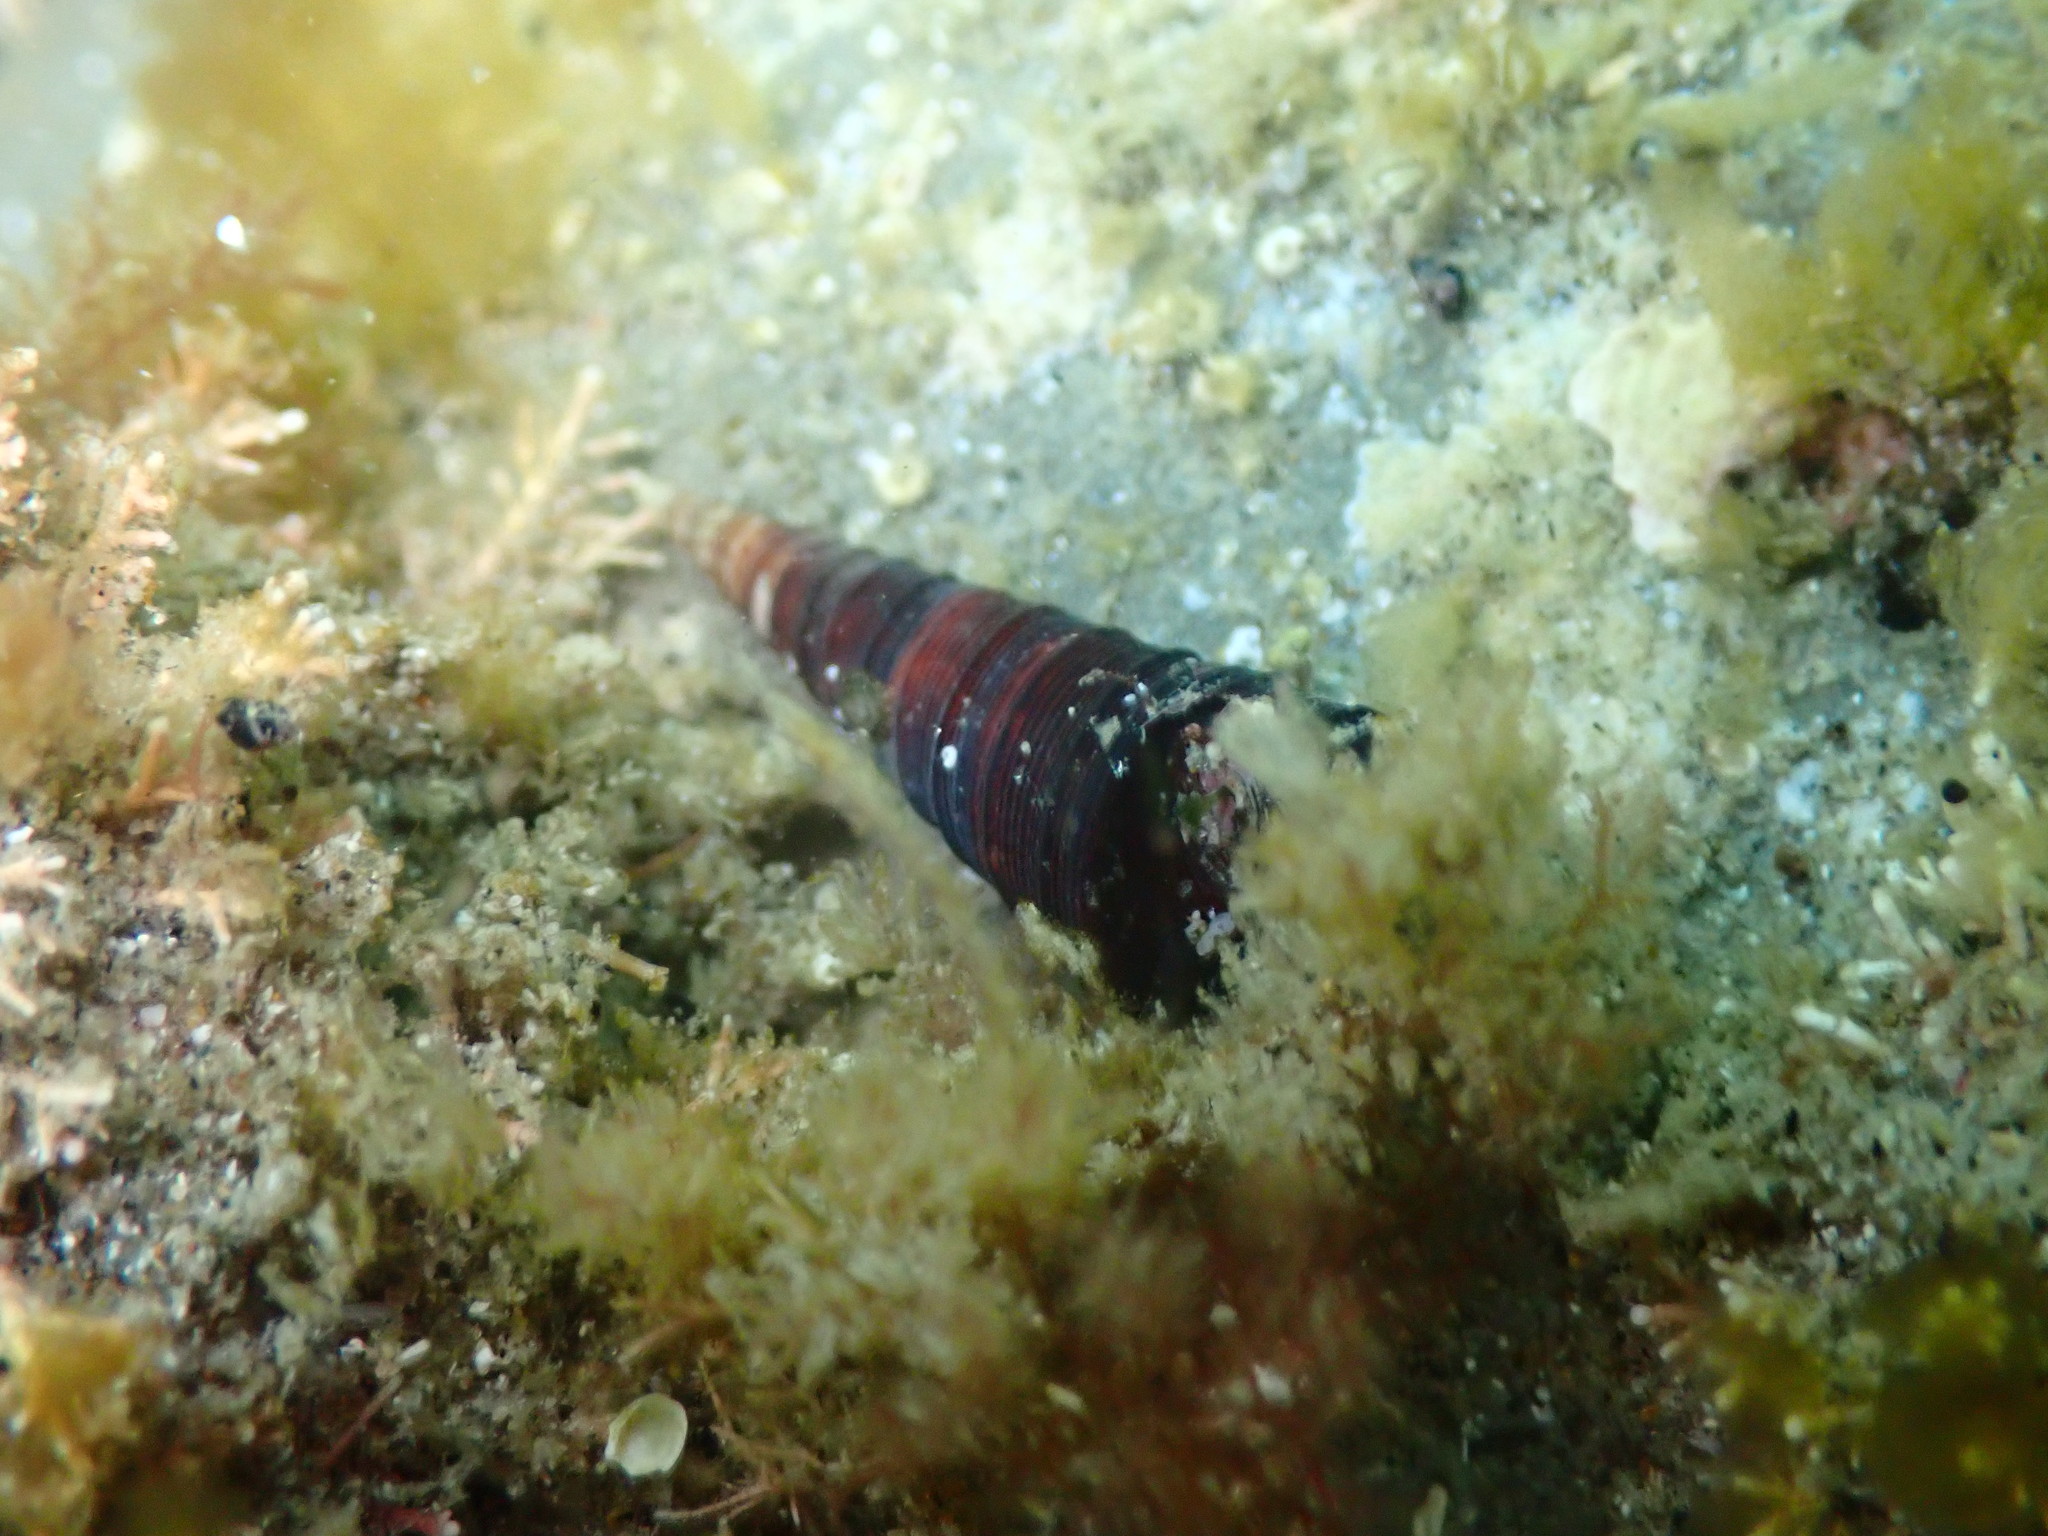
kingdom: Animalia
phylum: Mollusca
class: Gastropoda
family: Turritellidae
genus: Maoricolpus
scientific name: Maoricolpus roseus
